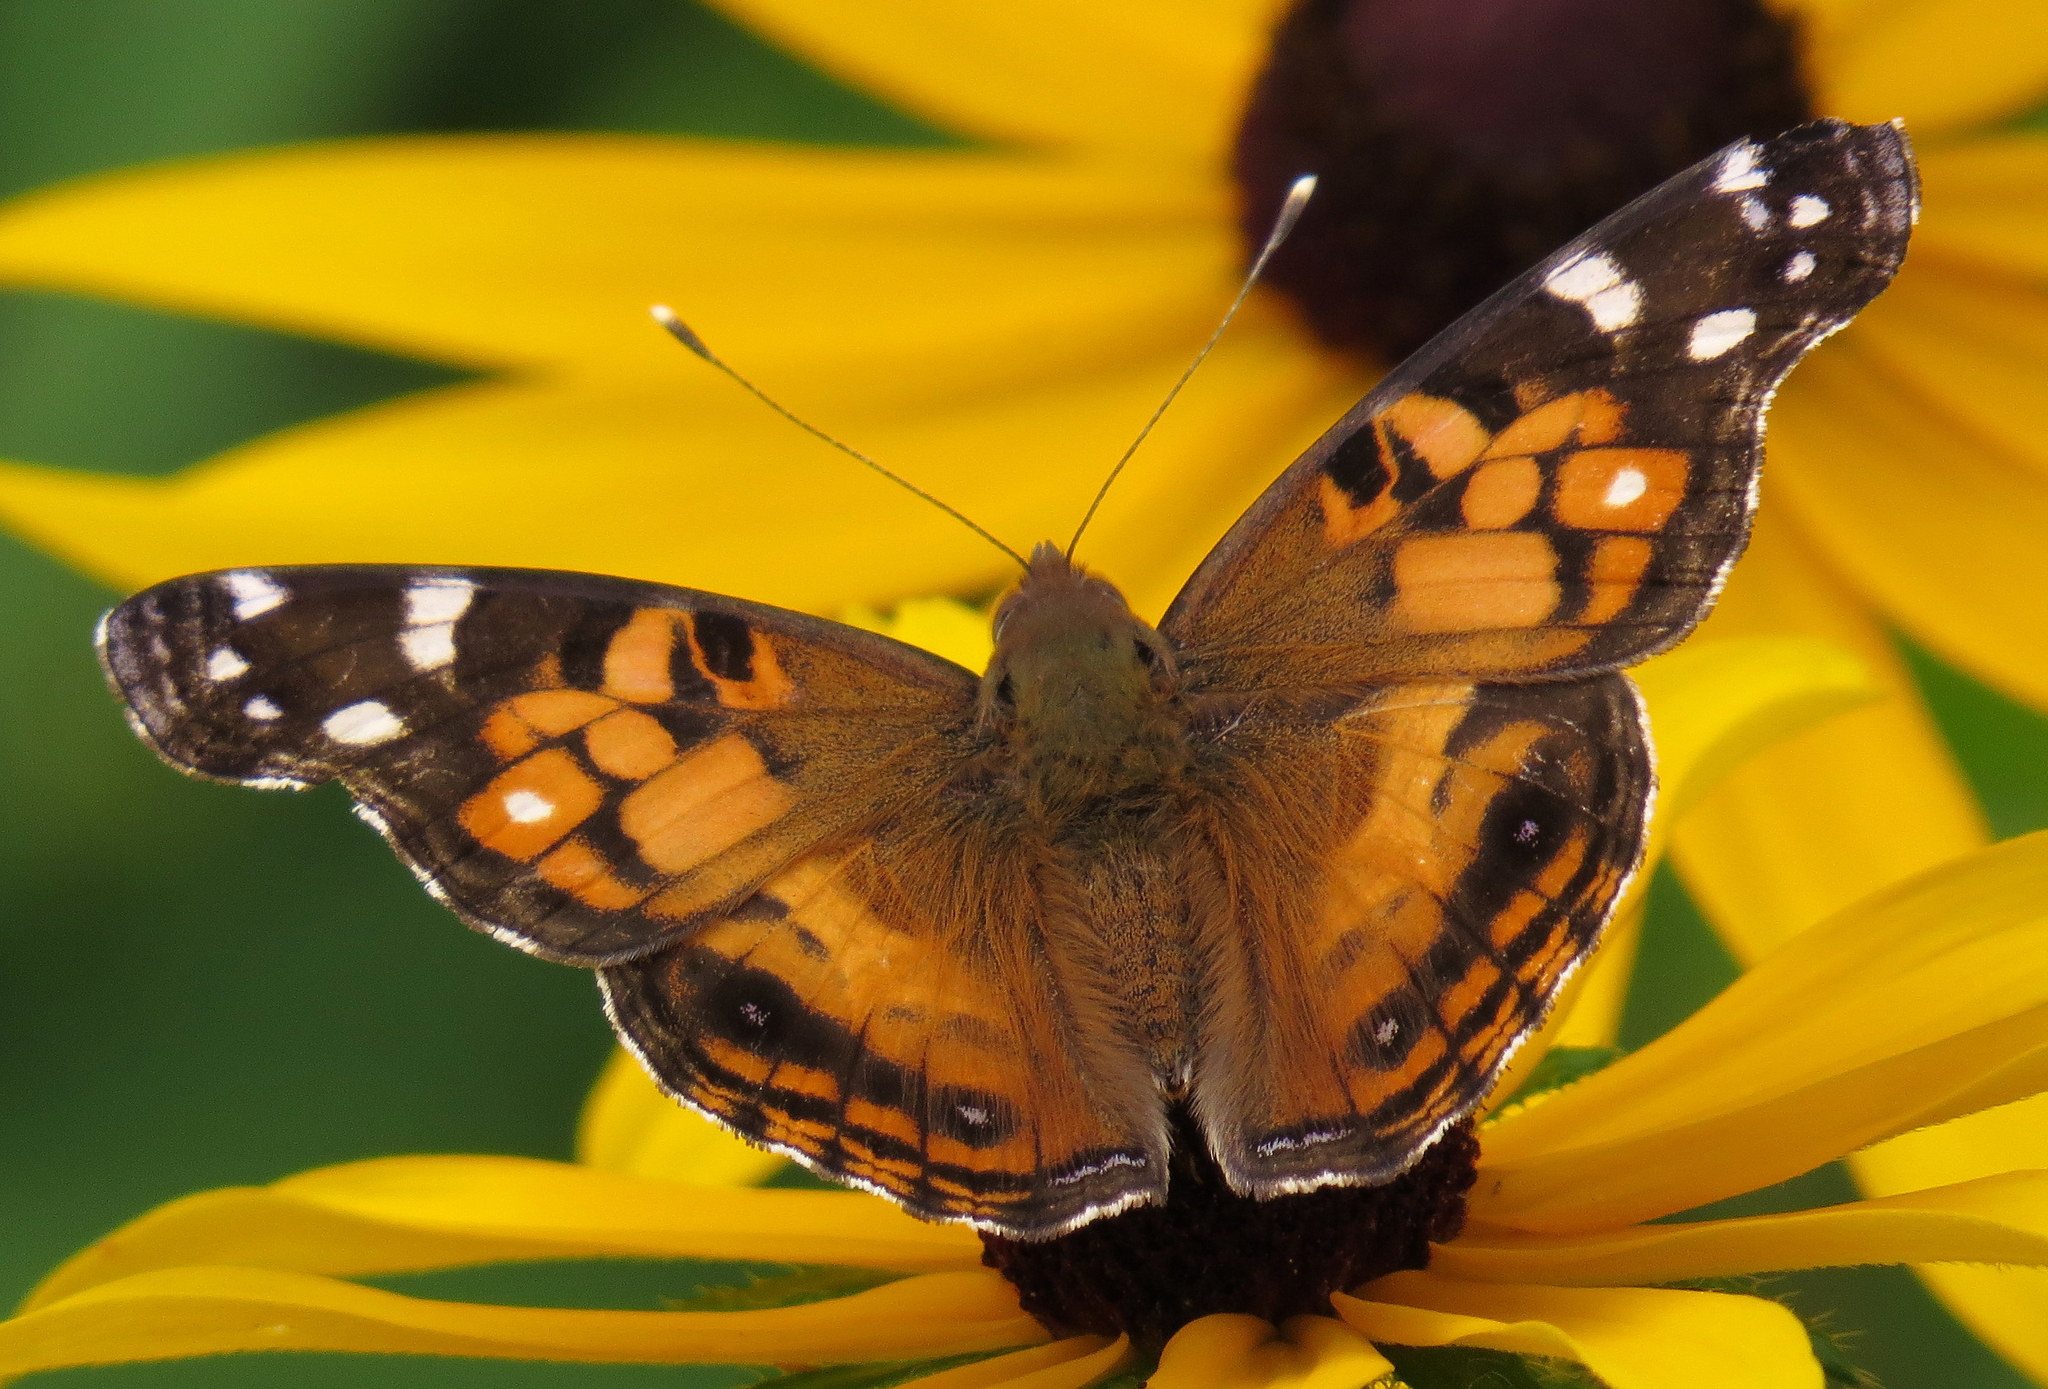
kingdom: Animalia
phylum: Arthropoda
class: Insecta
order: Lepidoptera
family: Nymphalidae
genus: Vanessa
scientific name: Vanessa virginiensis
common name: American lady
